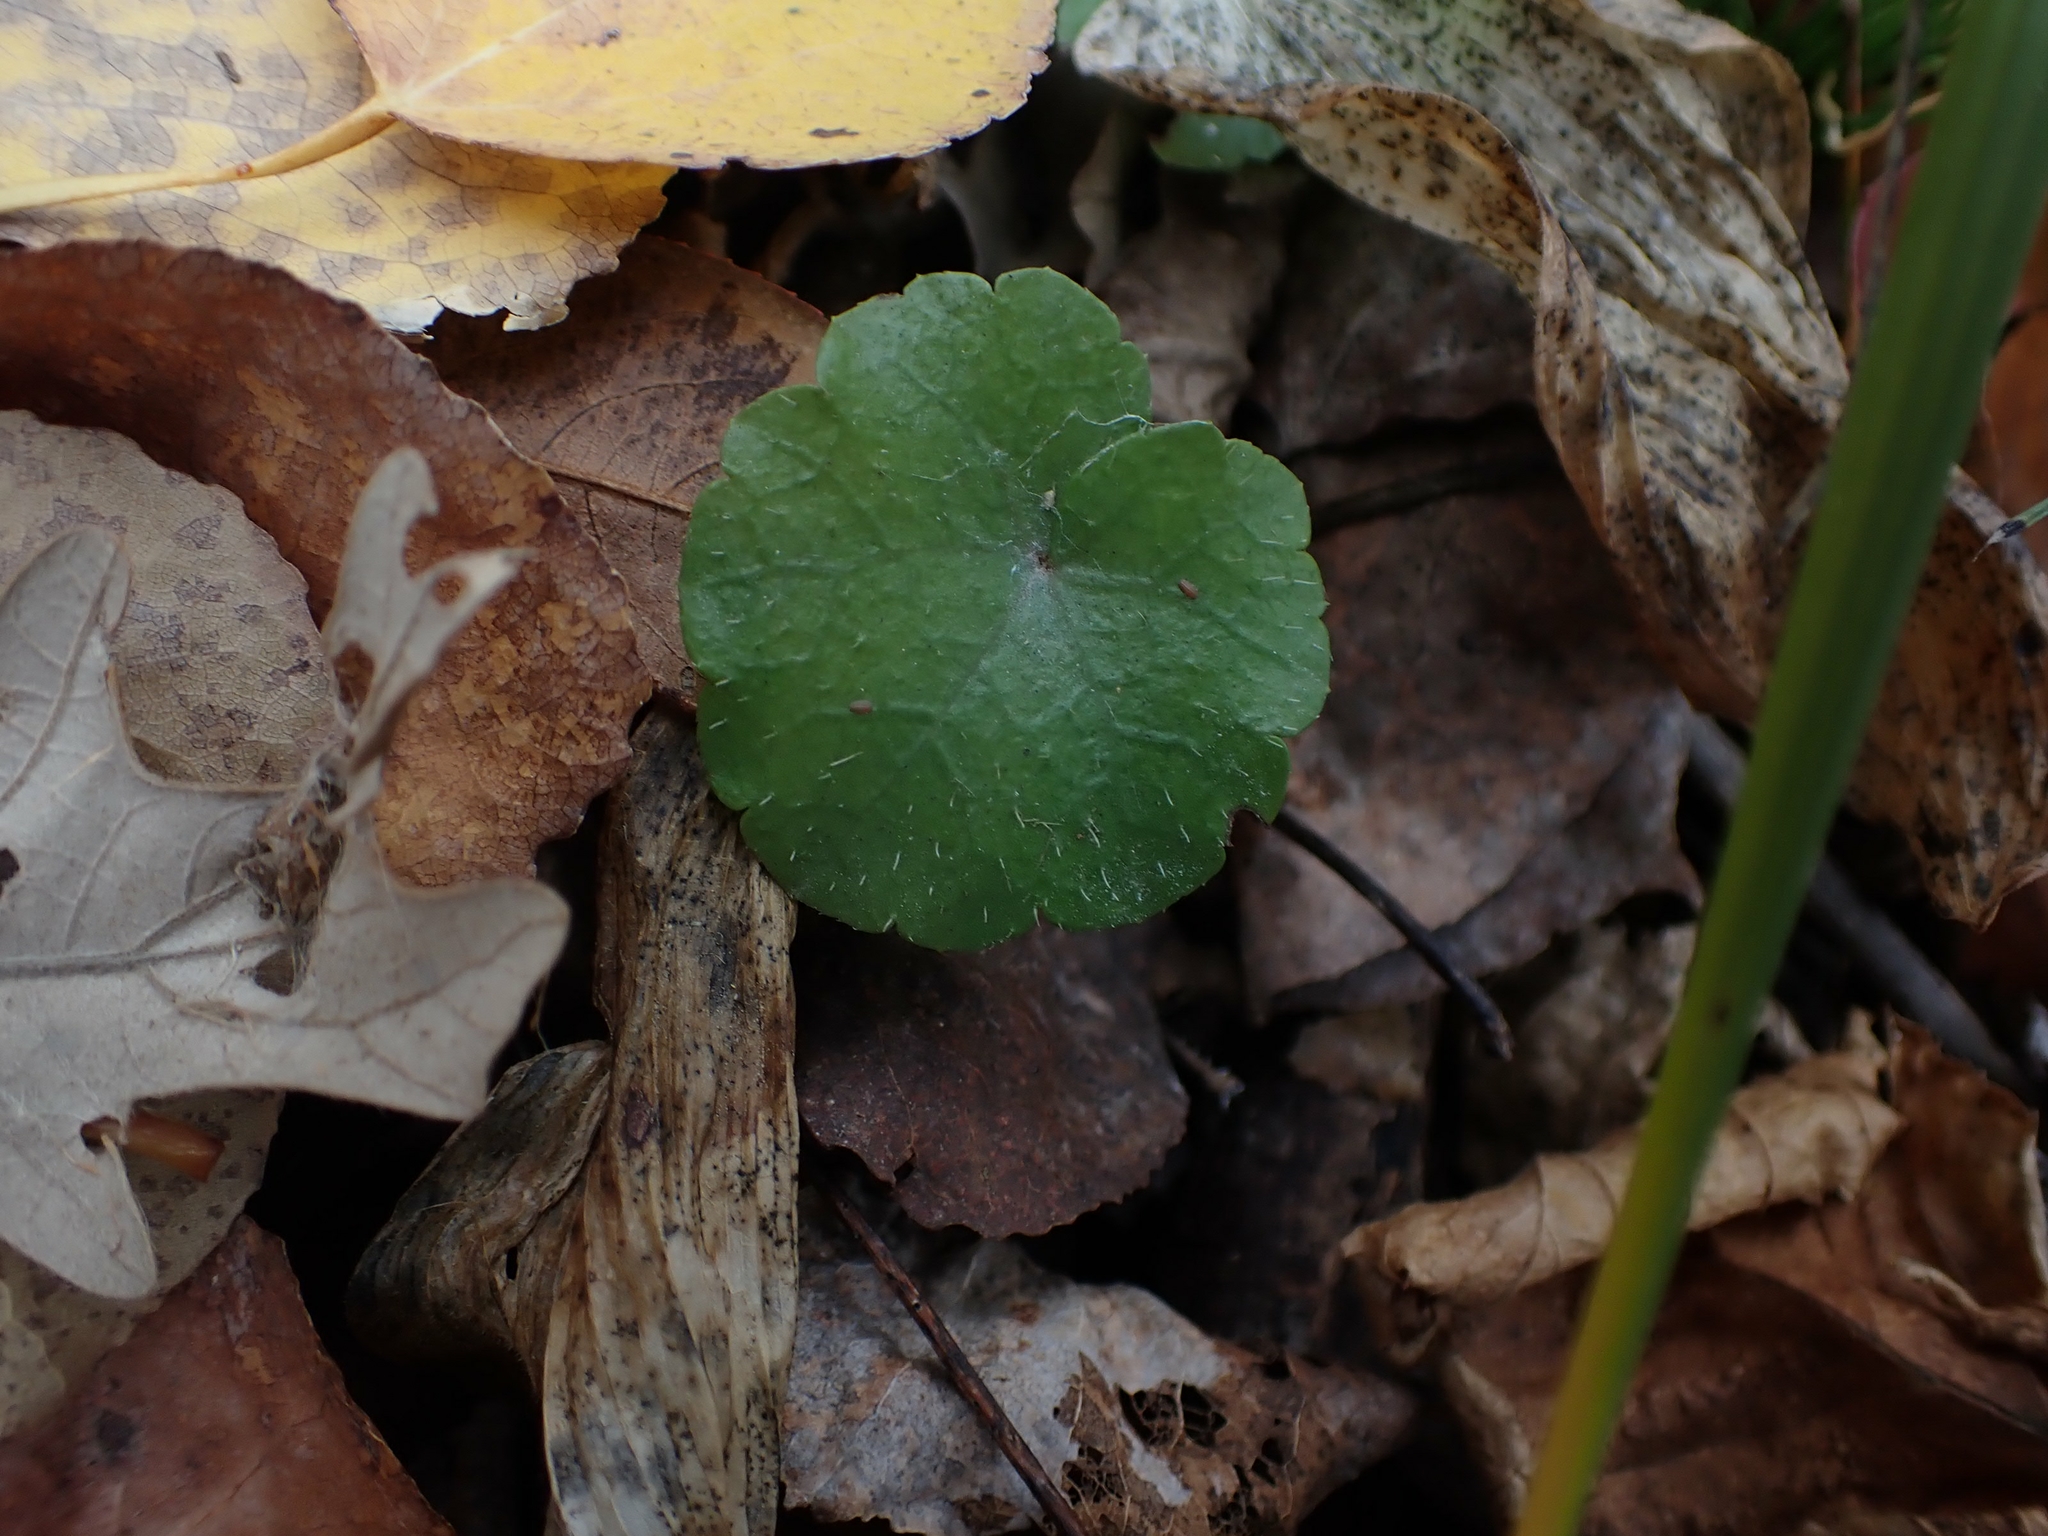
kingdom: Plantae
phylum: Tracheophyta
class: Magnoliopsida
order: Saxifragales
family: Saxifragaceae
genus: Mitella
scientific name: Mitella nuda
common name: Bare-stemmed bishop's-cap
